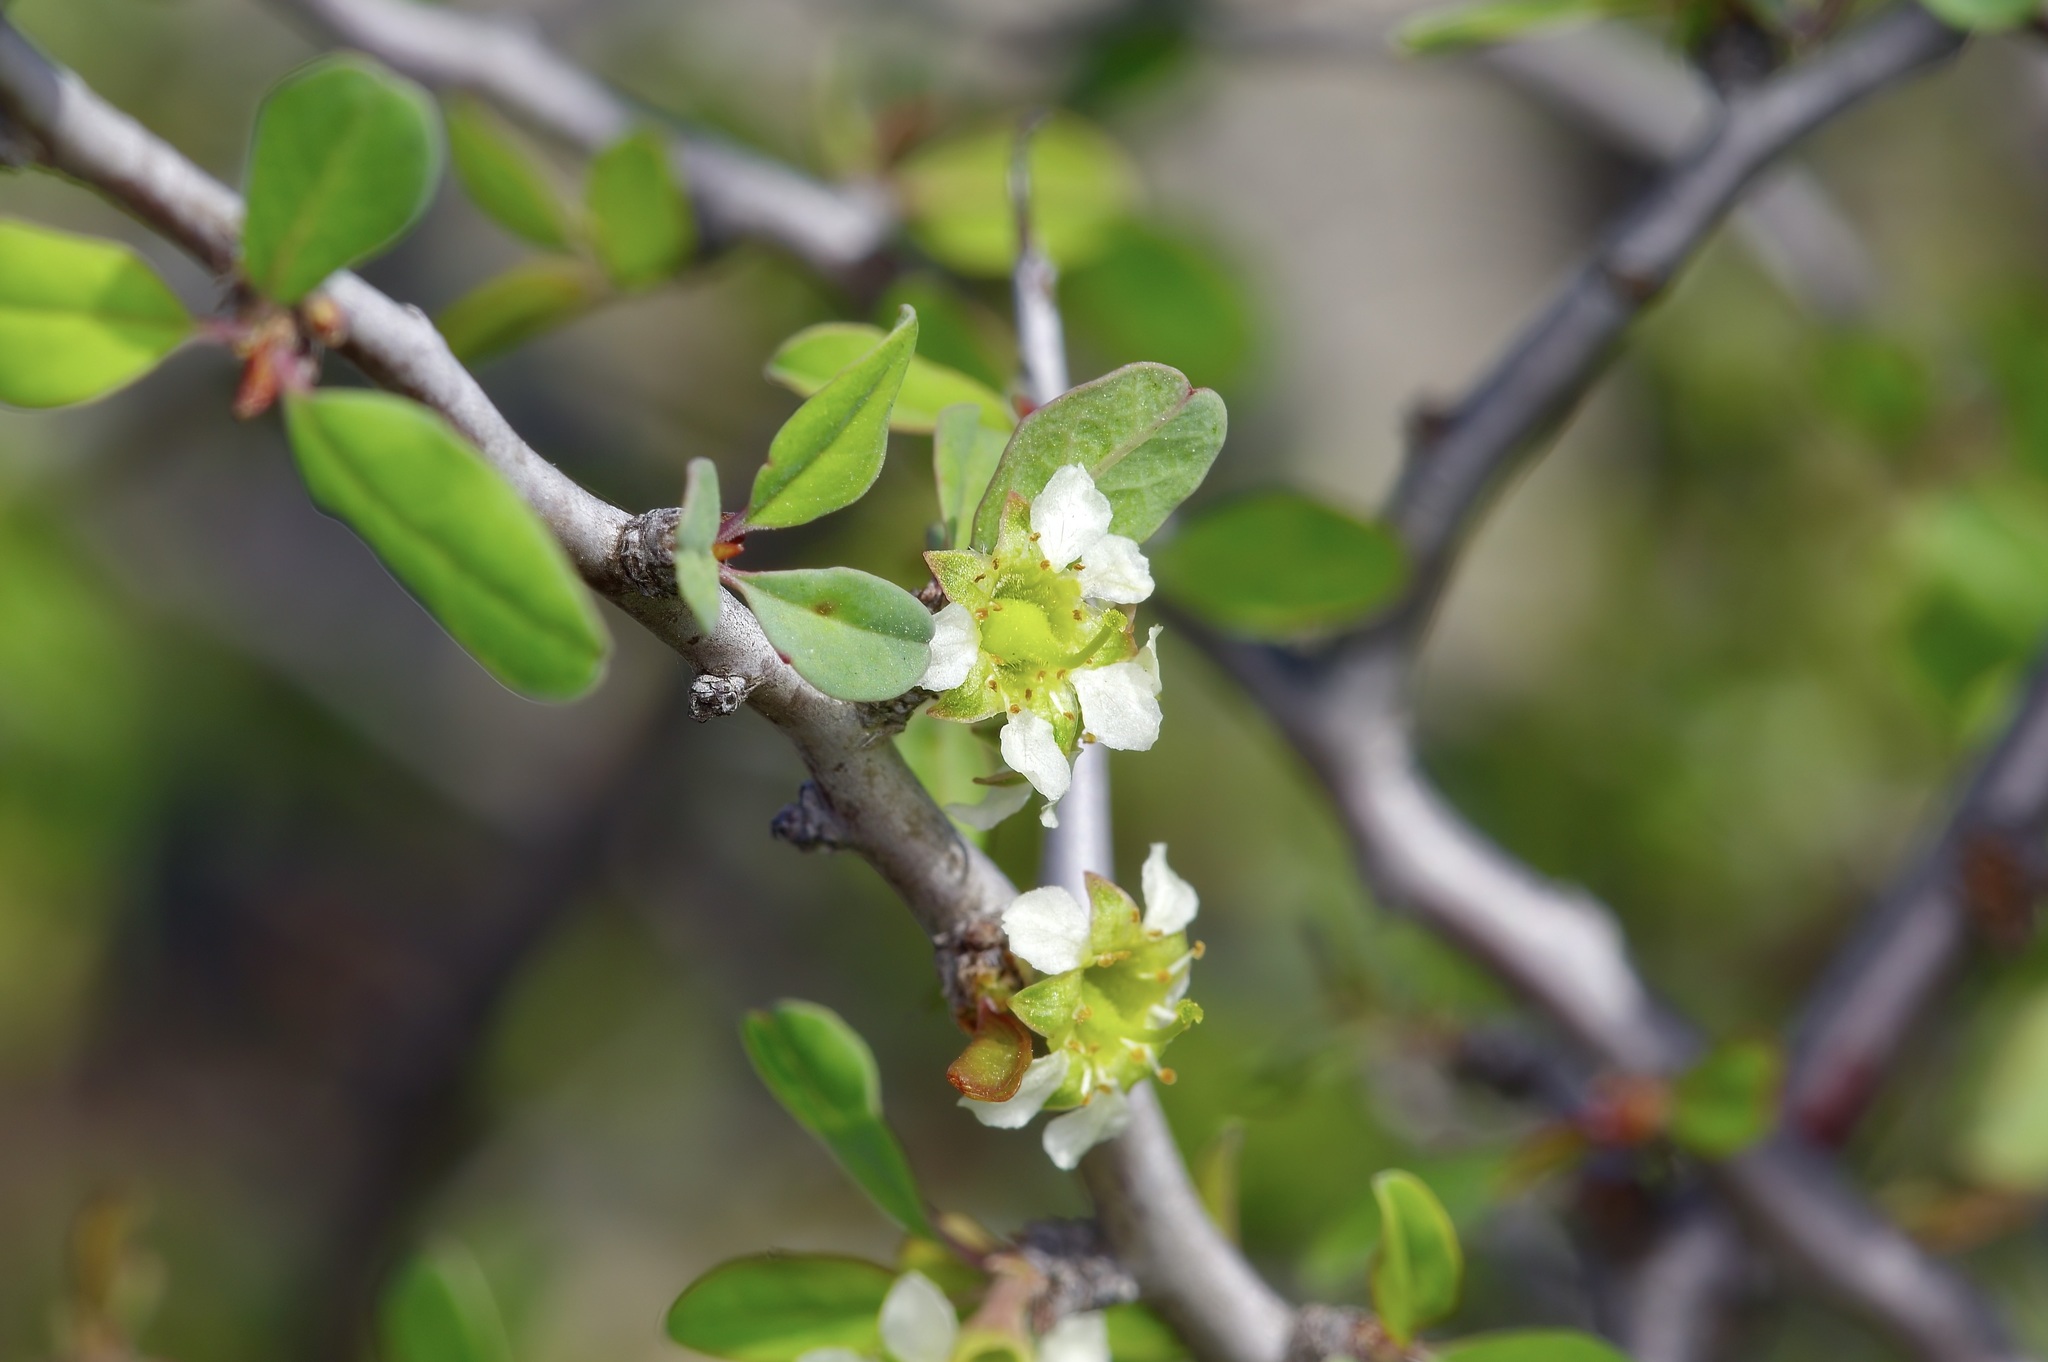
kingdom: Plantae
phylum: Tracheophyta
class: Magnoliopsida
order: Rosales
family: Rosaceae
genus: Prunus
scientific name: Prunus minutiflora
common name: Texas almond
